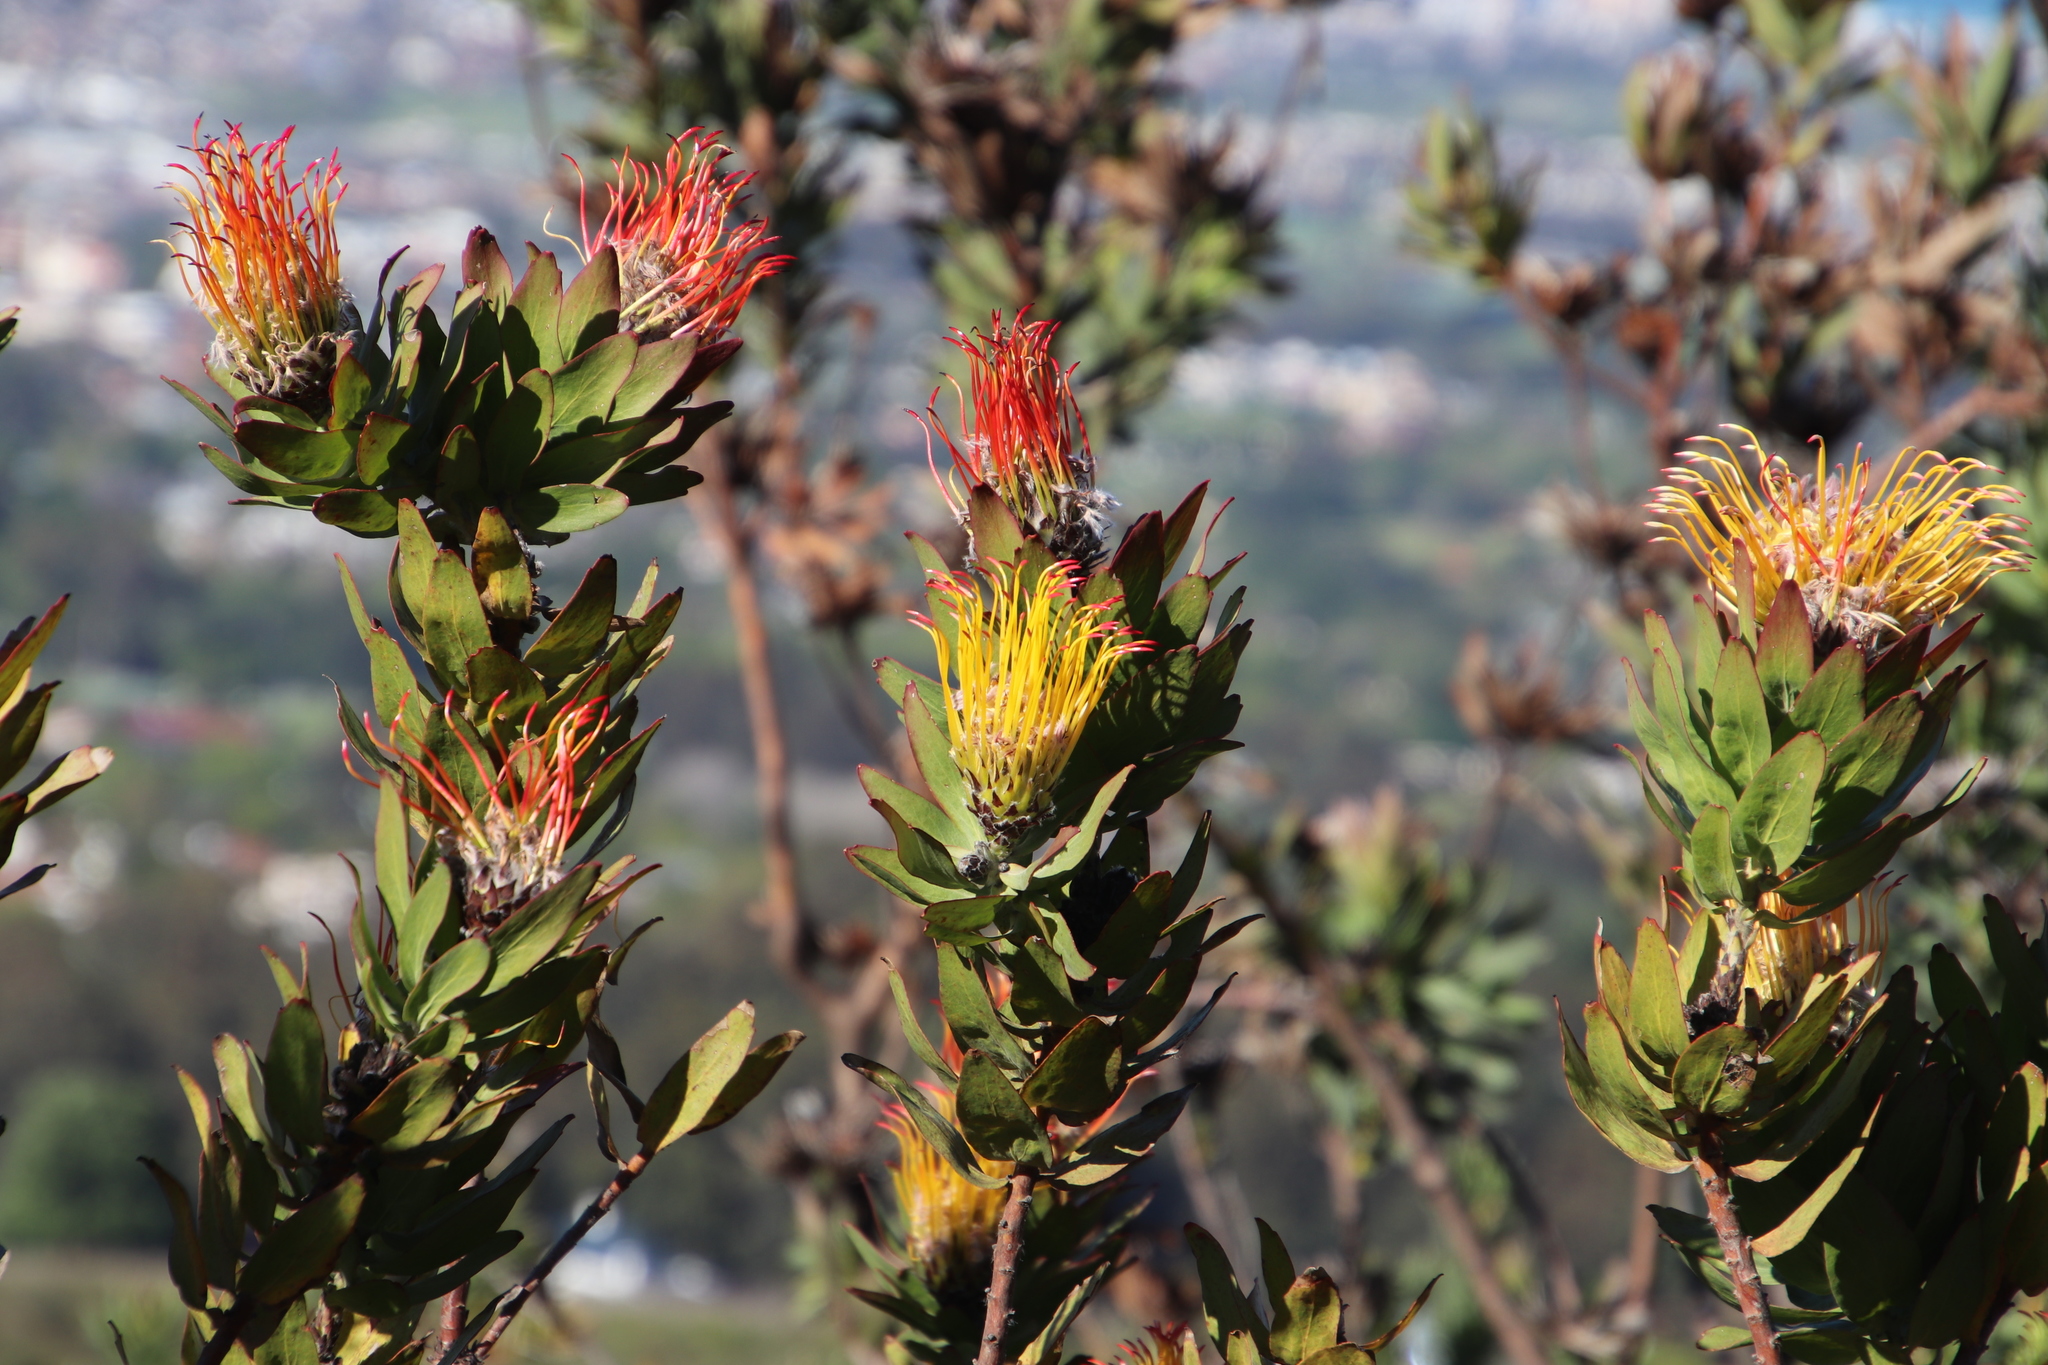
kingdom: Plantae
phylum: Tracheophyta
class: Magnoliopsida
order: Proteales
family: Proteaceae
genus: Leucospermum
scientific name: Leucospermum gueinzii
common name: Kloof fountain pincushion
